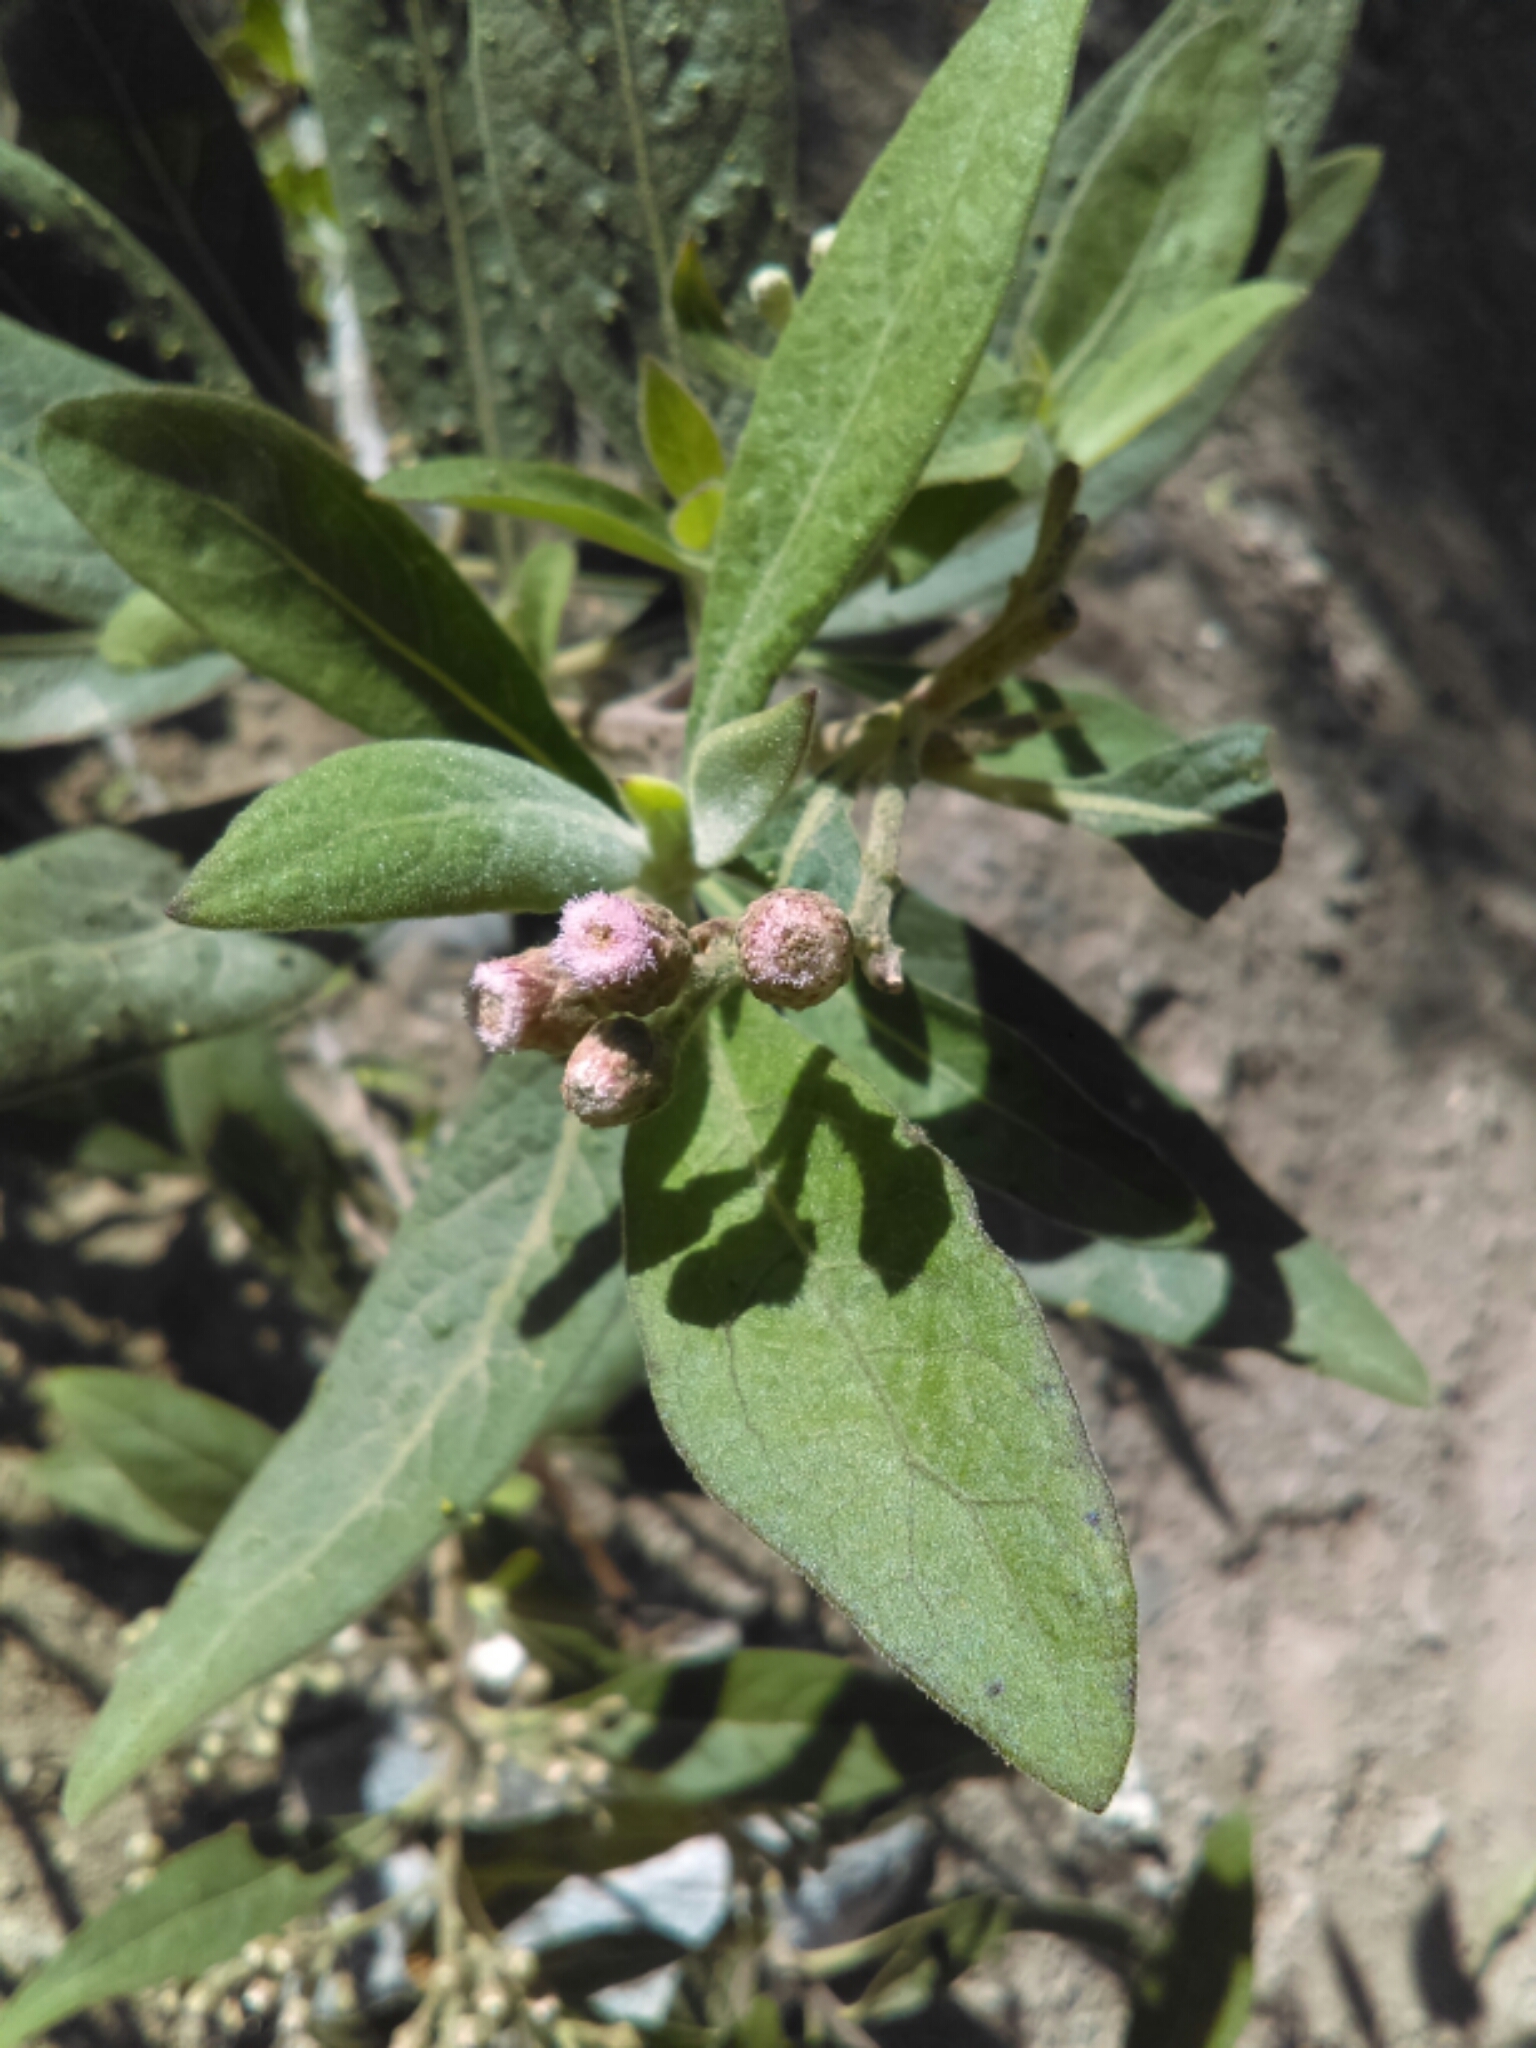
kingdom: Plantae
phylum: Tracheophyta
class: Magnoliopsida
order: Asterales
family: Asteraceae
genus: Pluchea
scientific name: Pluchea carolinensis
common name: Marsh fleabane
